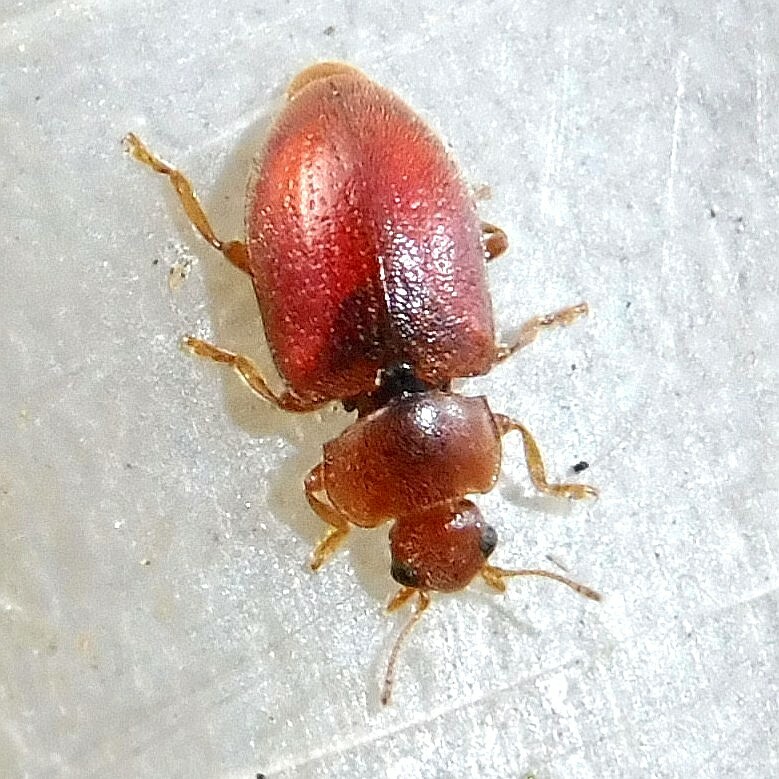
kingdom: Animalia
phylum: Arthropoda
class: Insecta
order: Coleoptera
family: Coccinellidae
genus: Coccidula
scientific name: Coccidula rufa
